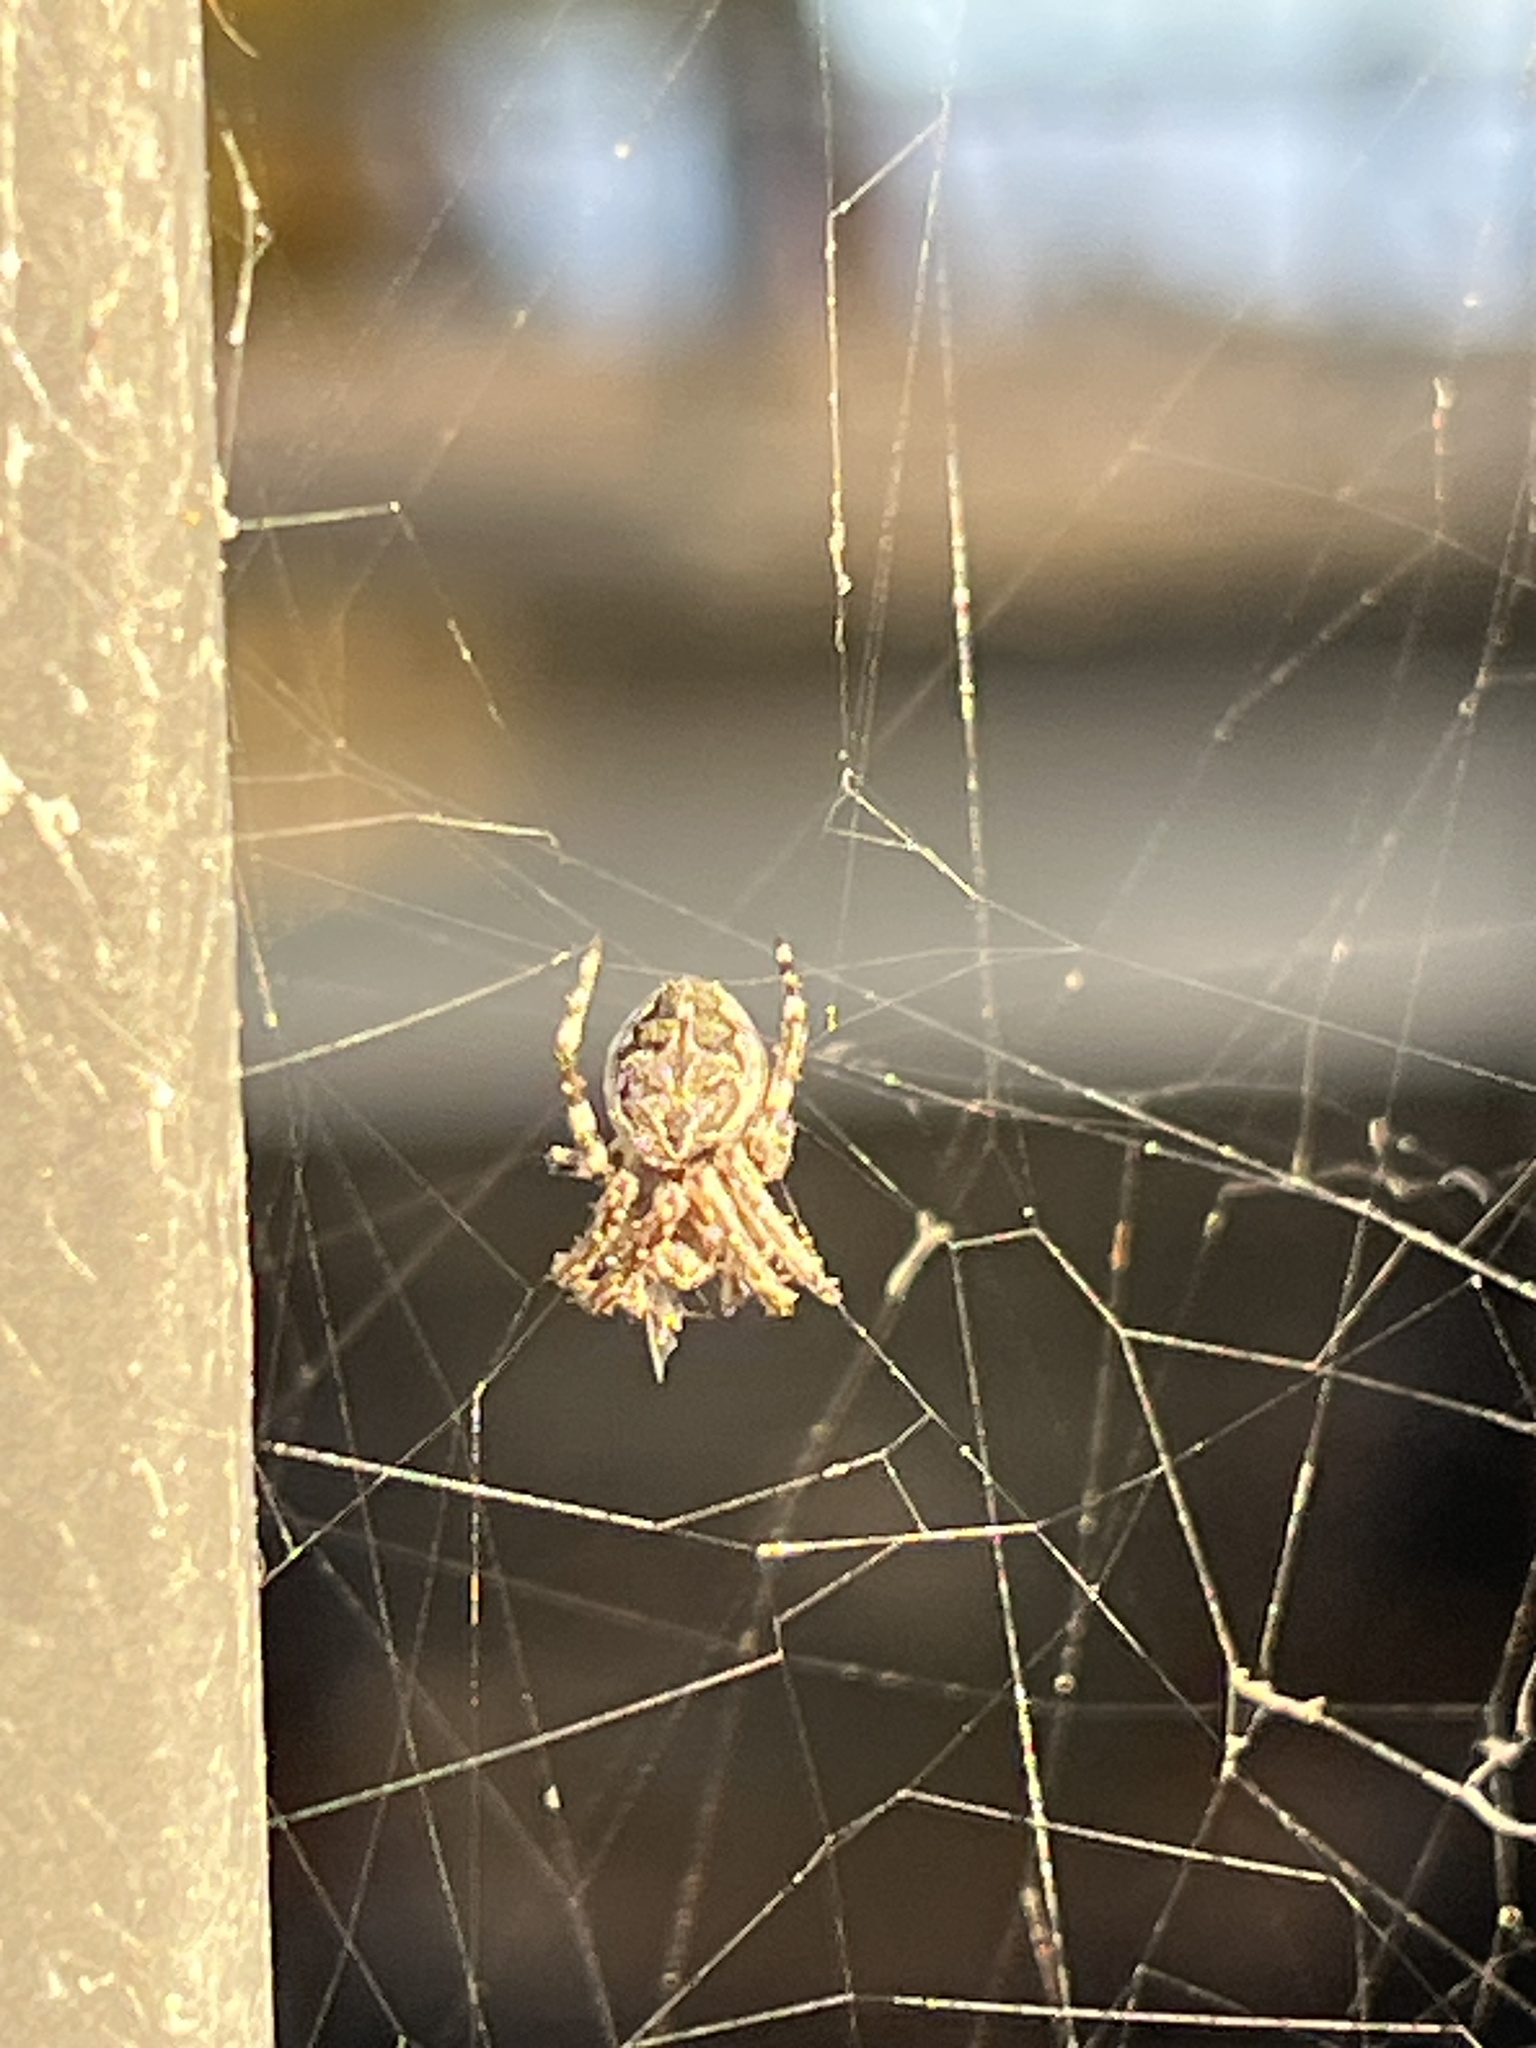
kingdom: Animalia
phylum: Arthropoda
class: Arachnida
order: Araneae
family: Araneidae
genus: Larinioides
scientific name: Larinioides sclopetarius
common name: Bridge orbweaver
